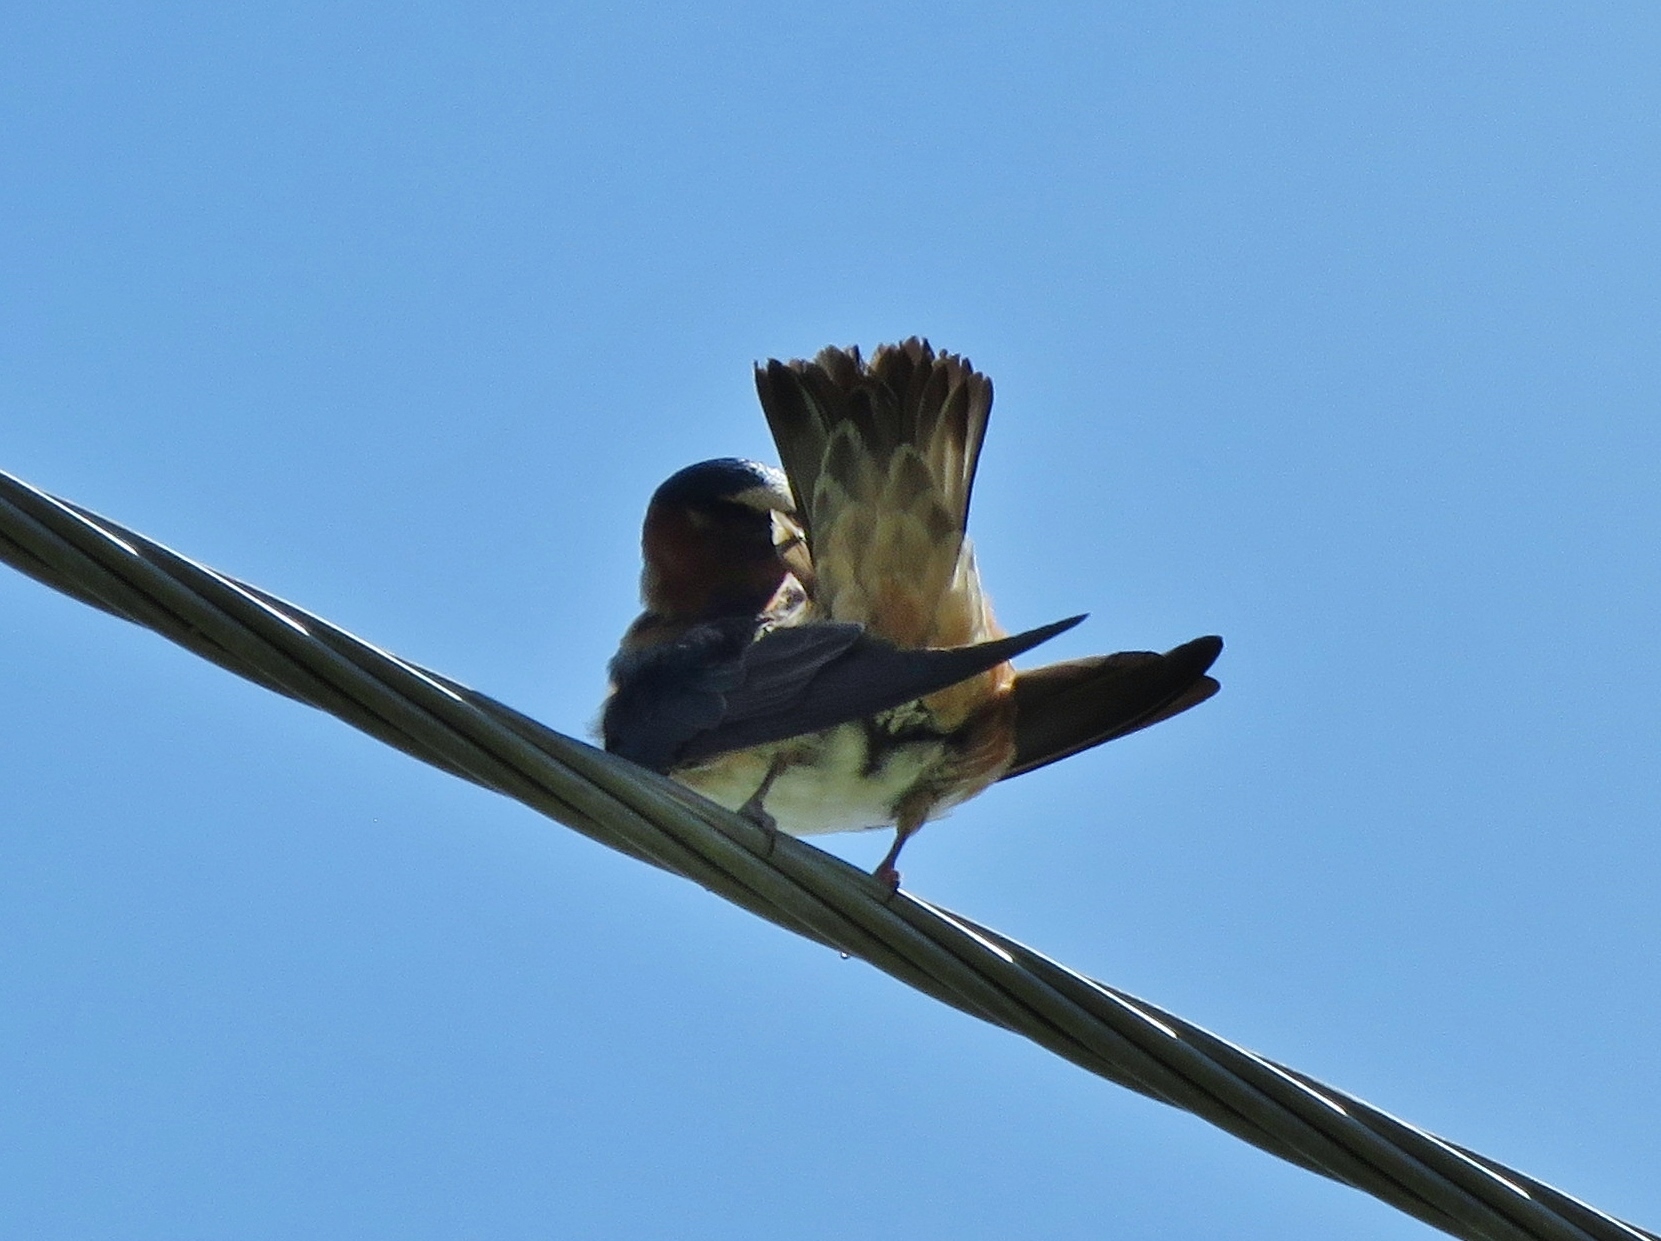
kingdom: Animalia
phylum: Chordata
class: Aves
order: Passeriformes
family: Hirundinidae
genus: Petrochelidon
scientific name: Petrochelidon pyrrhonota
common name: American cliff swallow
